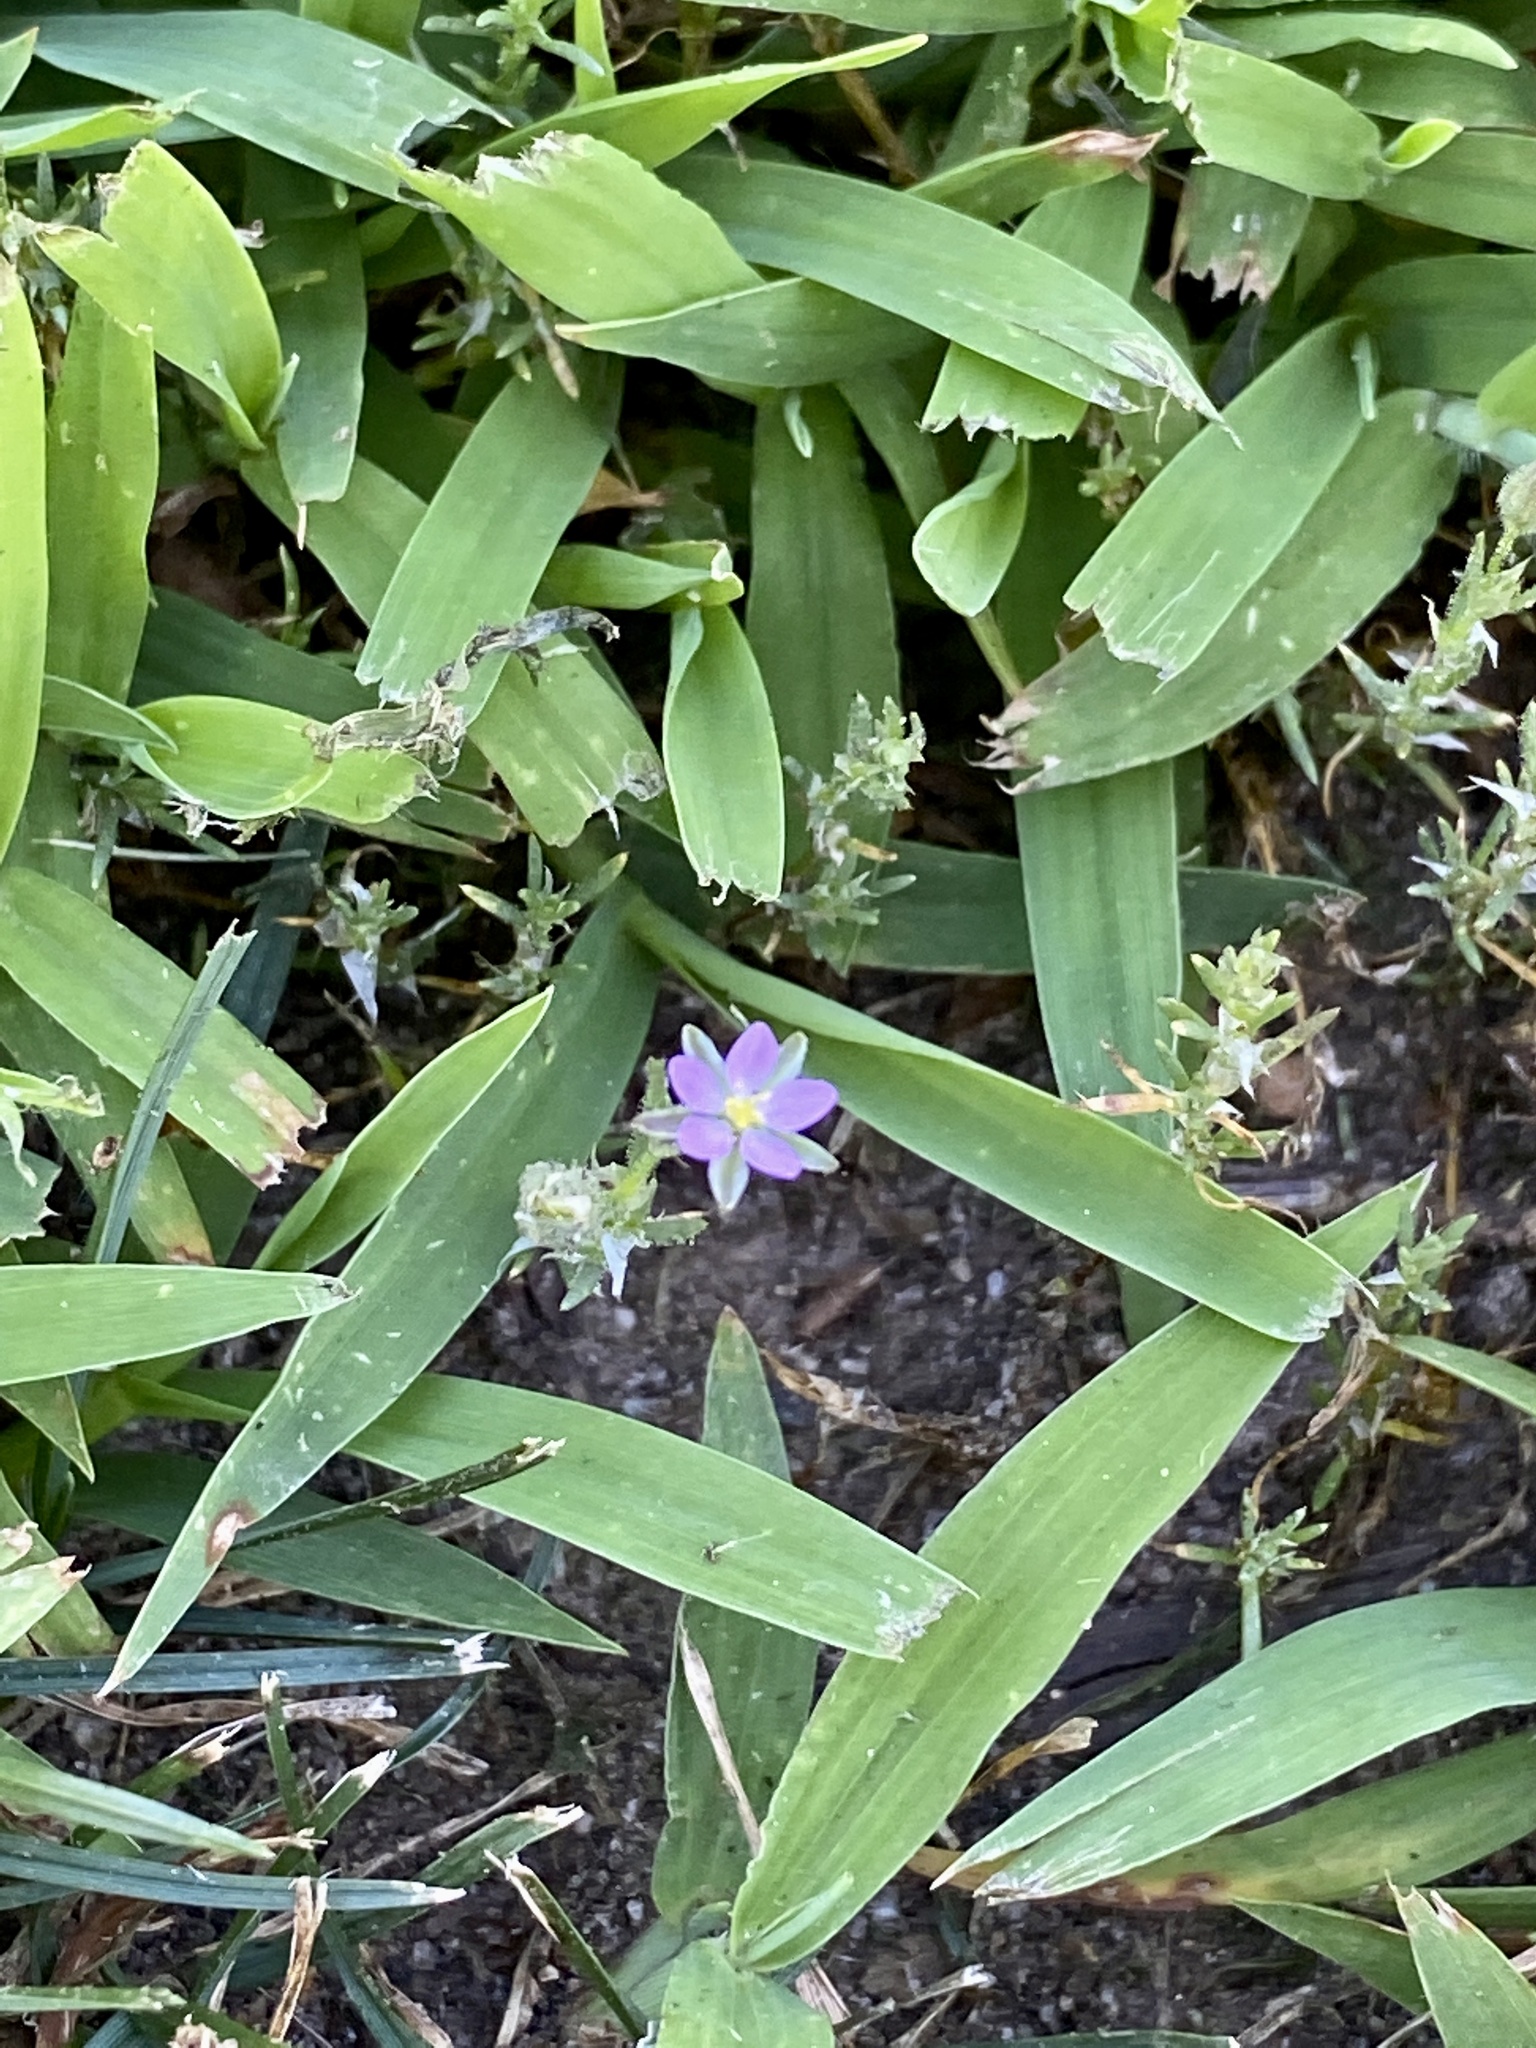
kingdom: Plantae
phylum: Tracheophyta
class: Magnoliopsida
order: Caryophyllales
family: Caryophyllaceae
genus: Spergularia
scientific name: Spergularia rubra
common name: Red sand-spurrey
